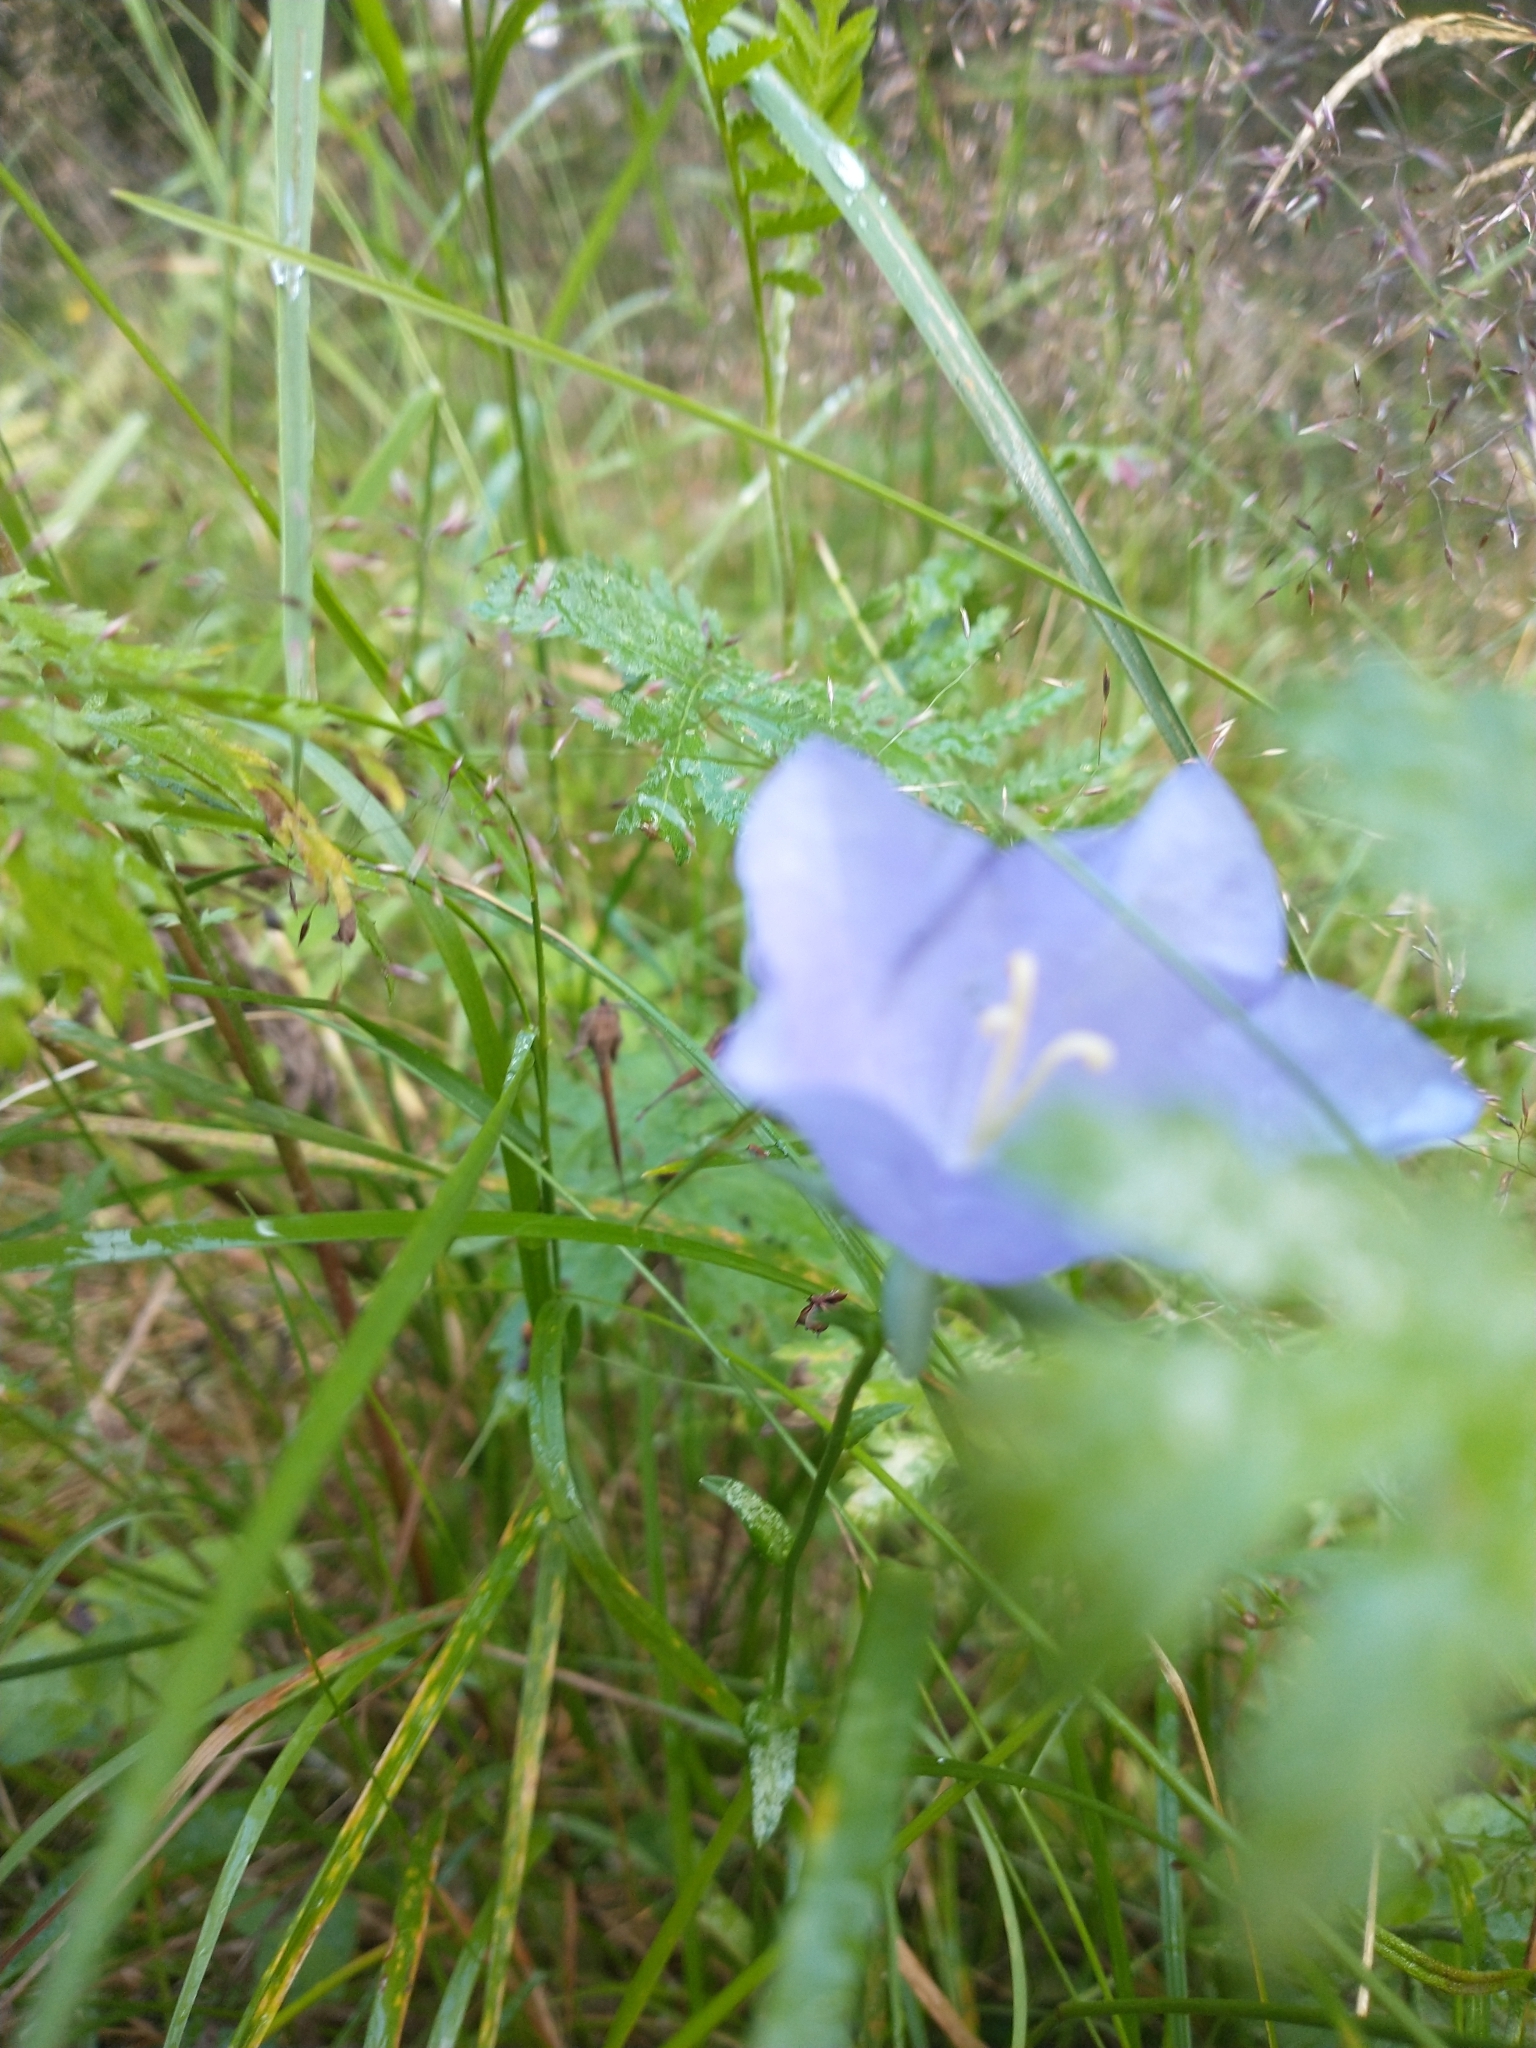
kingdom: Plantae
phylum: Tracheophyta
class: Magnoliopsida
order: Asterales
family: Campanulaceae
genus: Campanula
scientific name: Campanula persicifolia
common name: Peach-leaved bellflower
